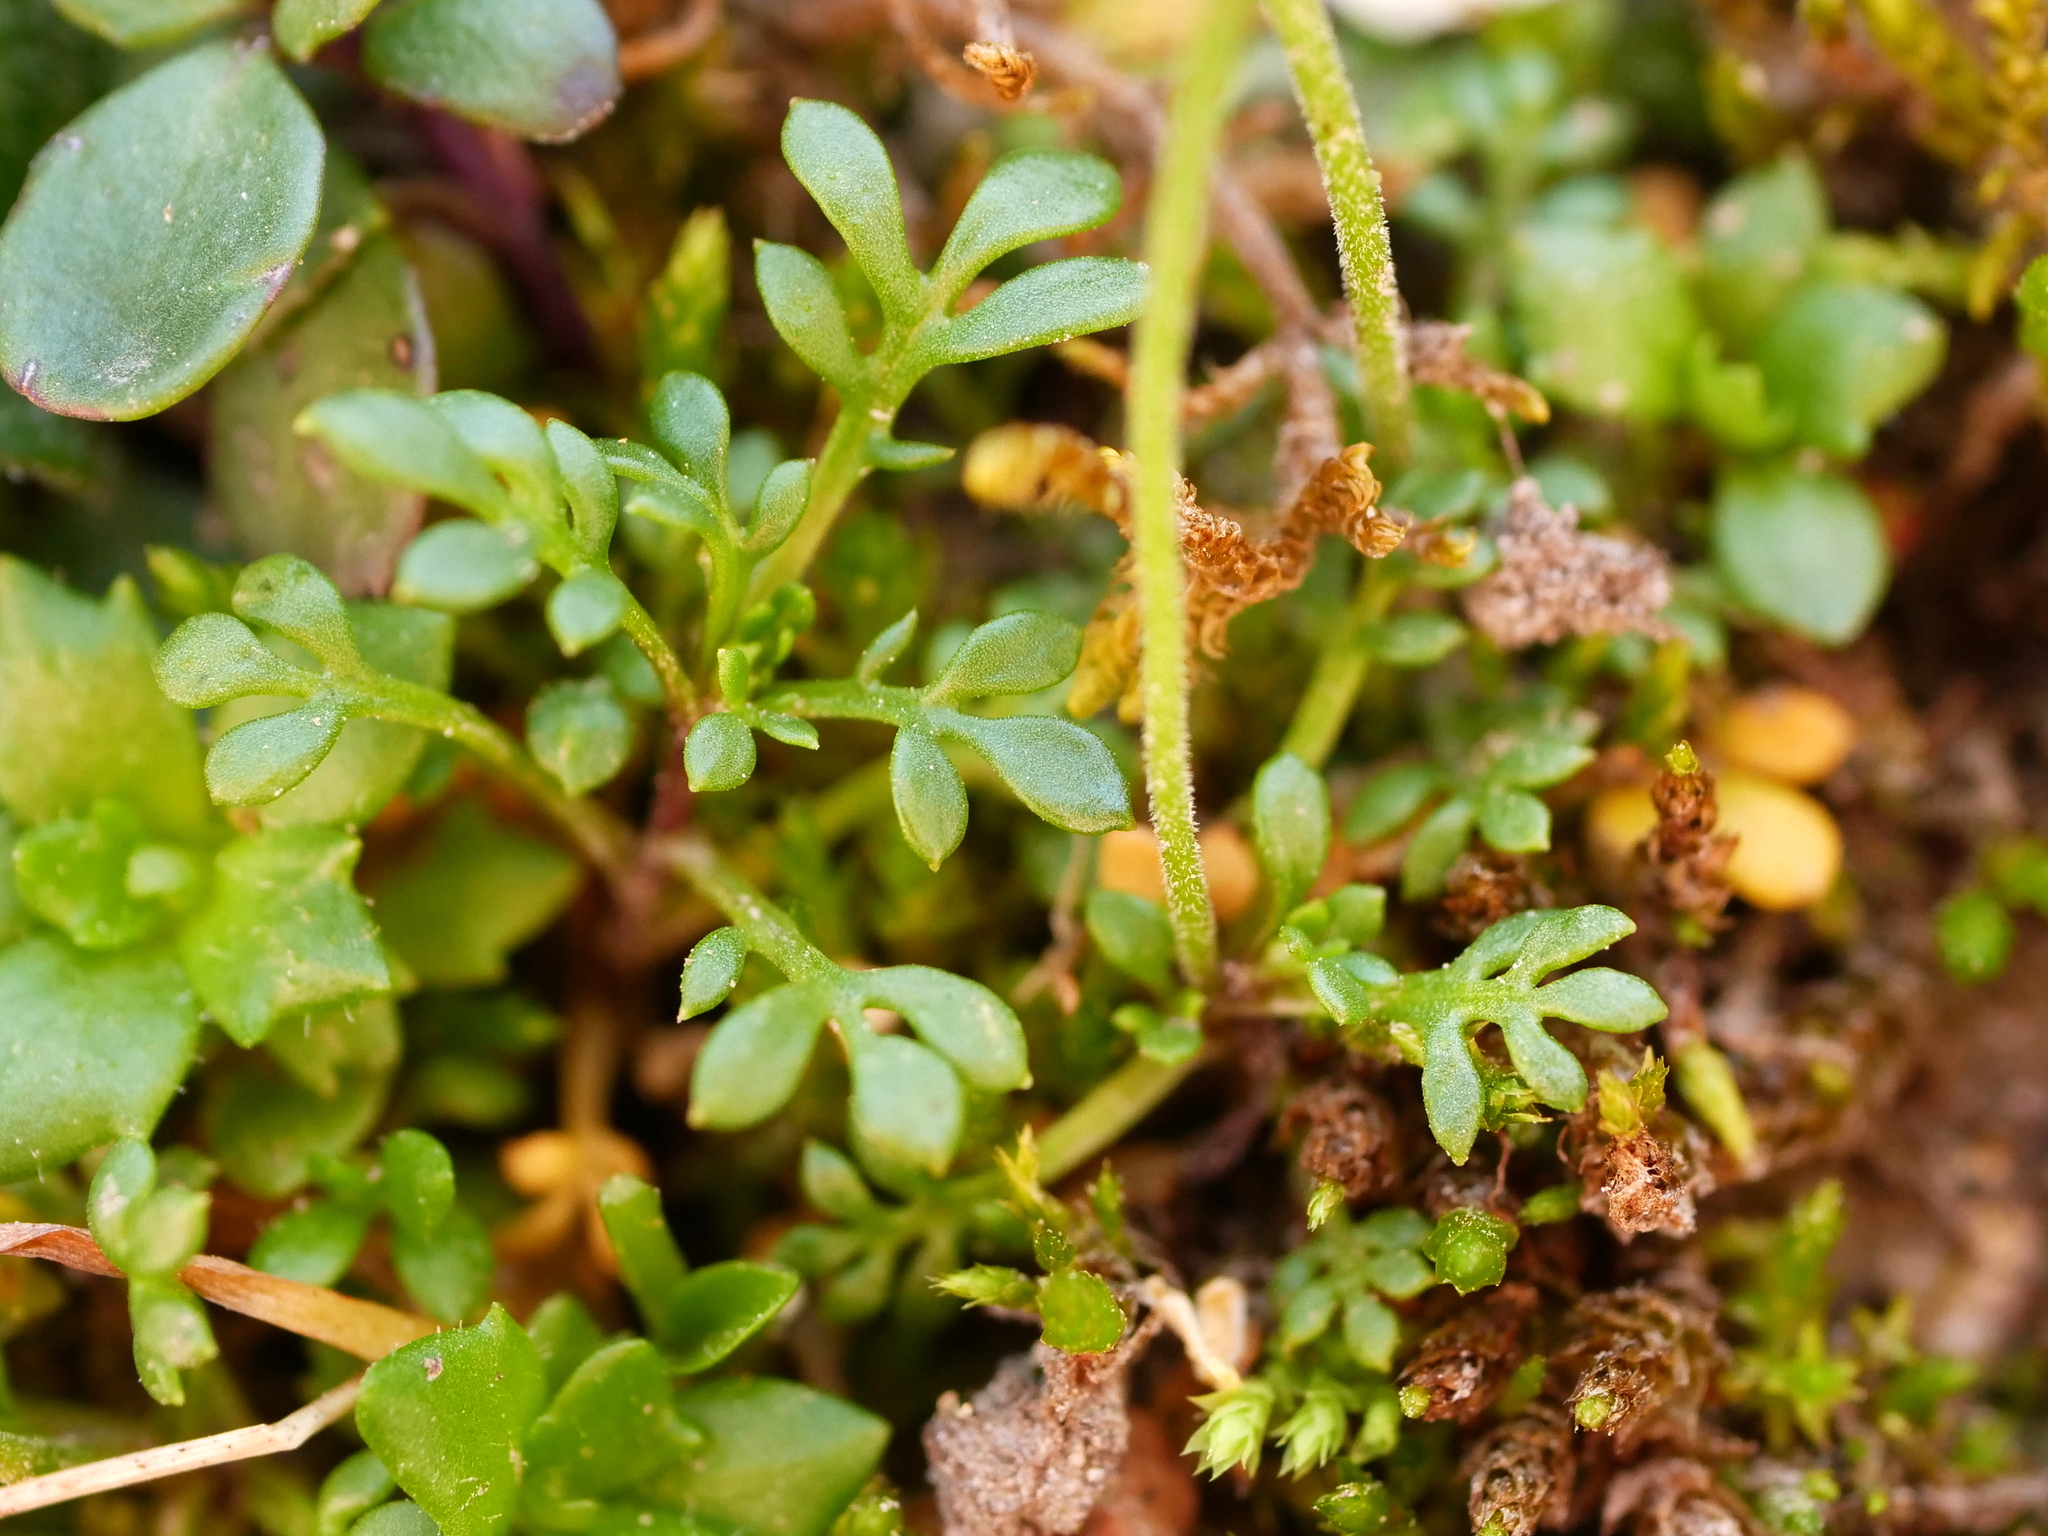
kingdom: Plantae
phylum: Tracheophyta
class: Magnoliopsida
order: Brassicales
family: Brassicaceae
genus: Hornungia
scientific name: Hornungia alpina
